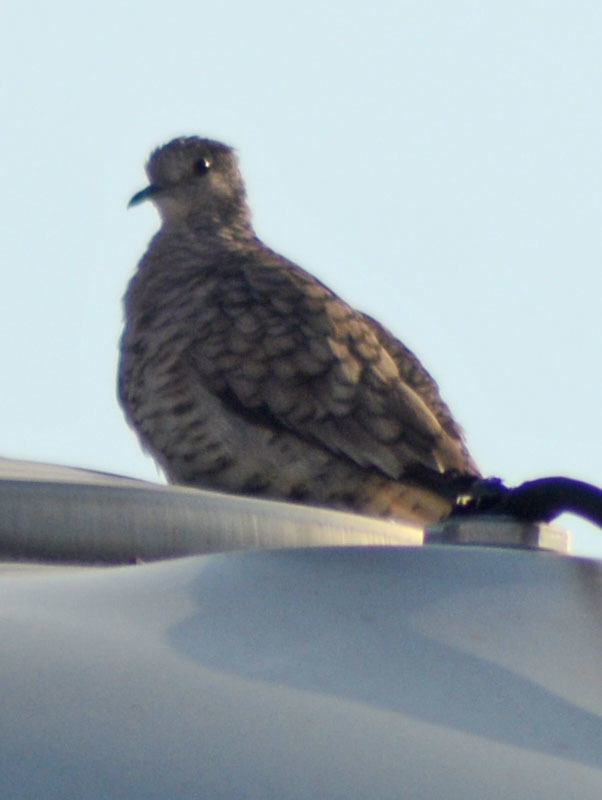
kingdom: Animalia
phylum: Chordata
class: Aves
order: Columbiformes
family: Columbidae
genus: Columbina
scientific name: Columbina inca
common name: Inca dove
